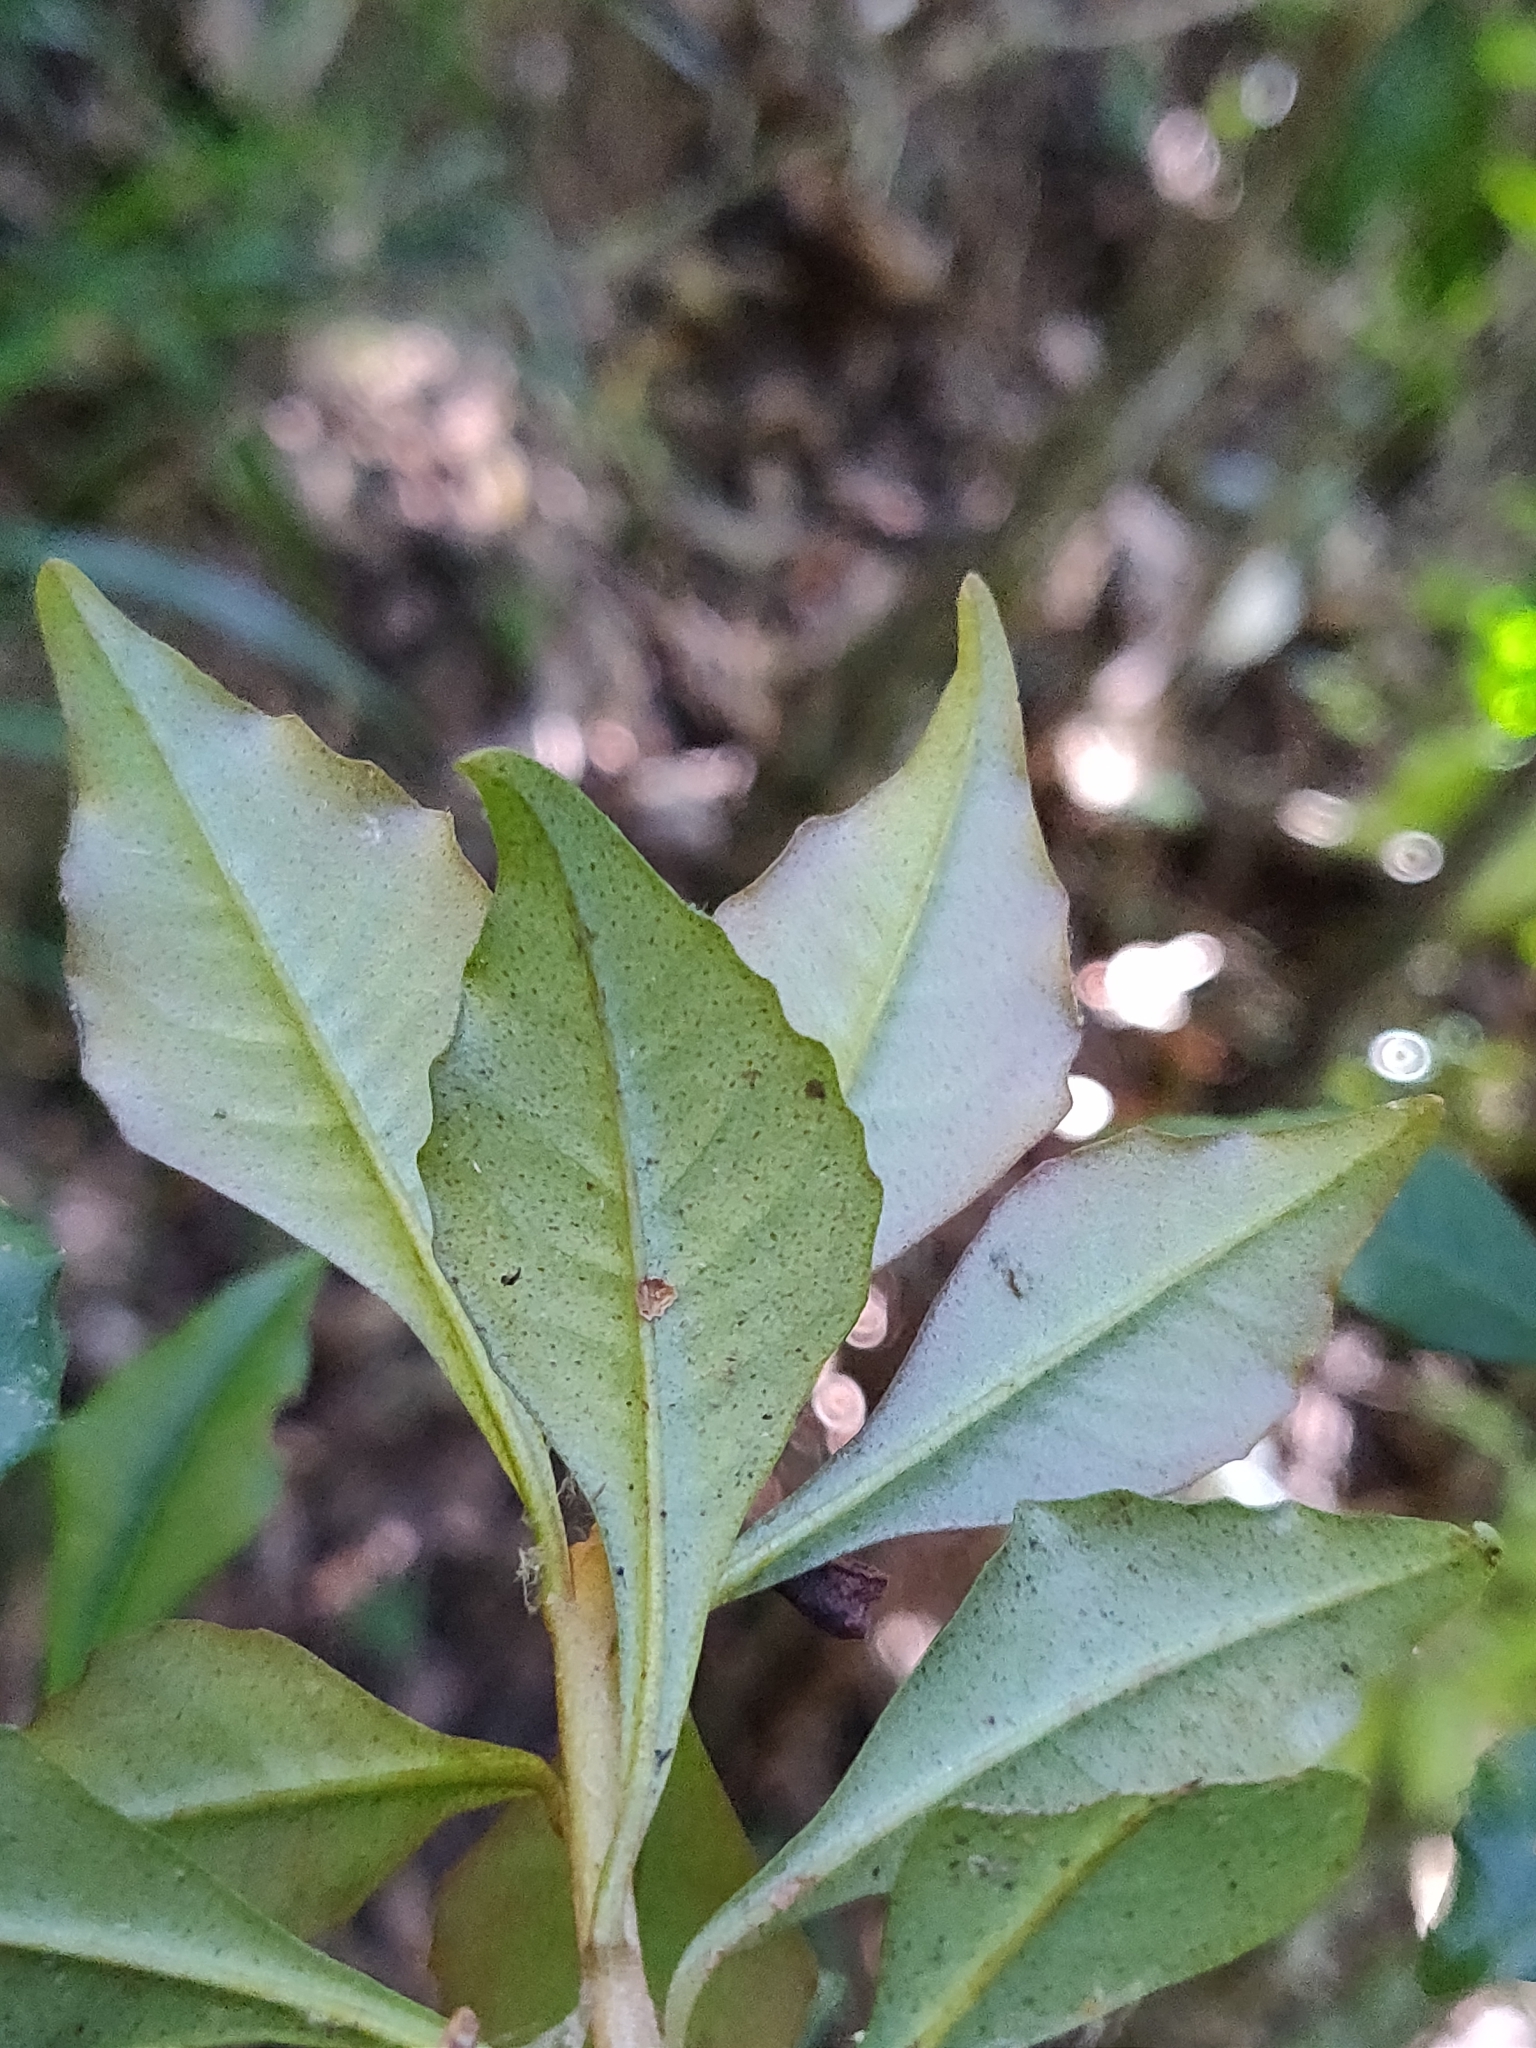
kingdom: Plantae
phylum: Tracheophyta
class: Magnoliopsida
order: Ericales
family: Primulaceae
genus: Ardisia
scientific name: Ardisia pauciflora
